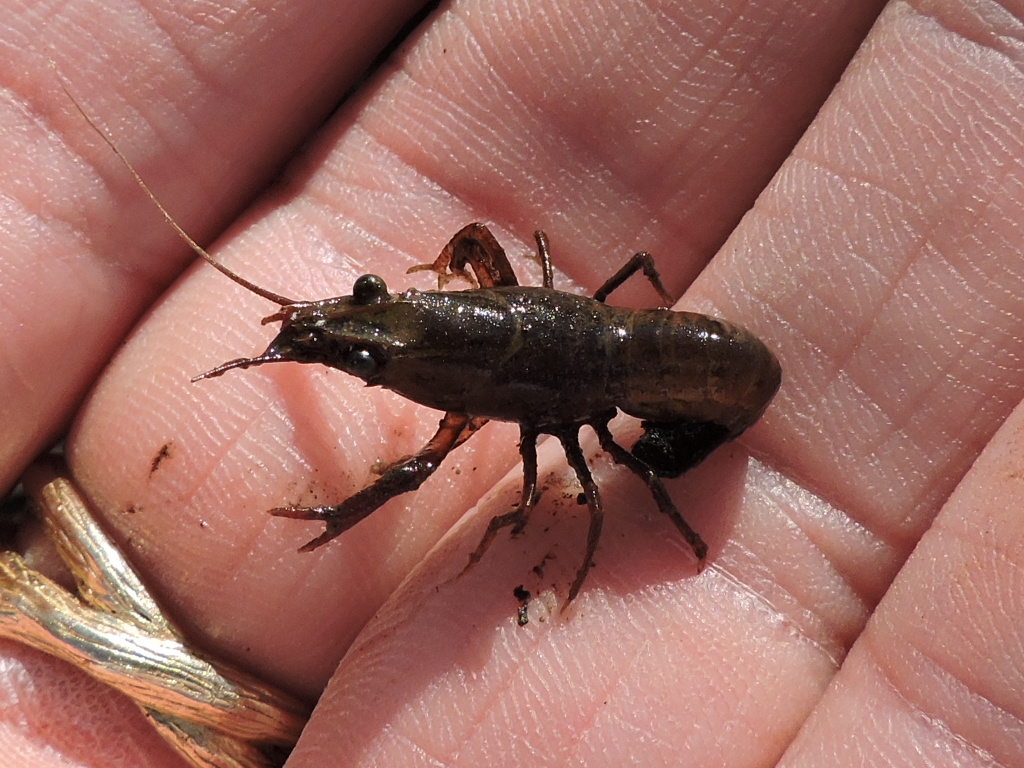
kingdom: Animalia
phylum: Arthropoda
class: Malacostraca
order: Decapoda
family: Cambaridae
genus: Procambarus
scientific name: Procambarus clarkii
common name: Red swamp crayfish
